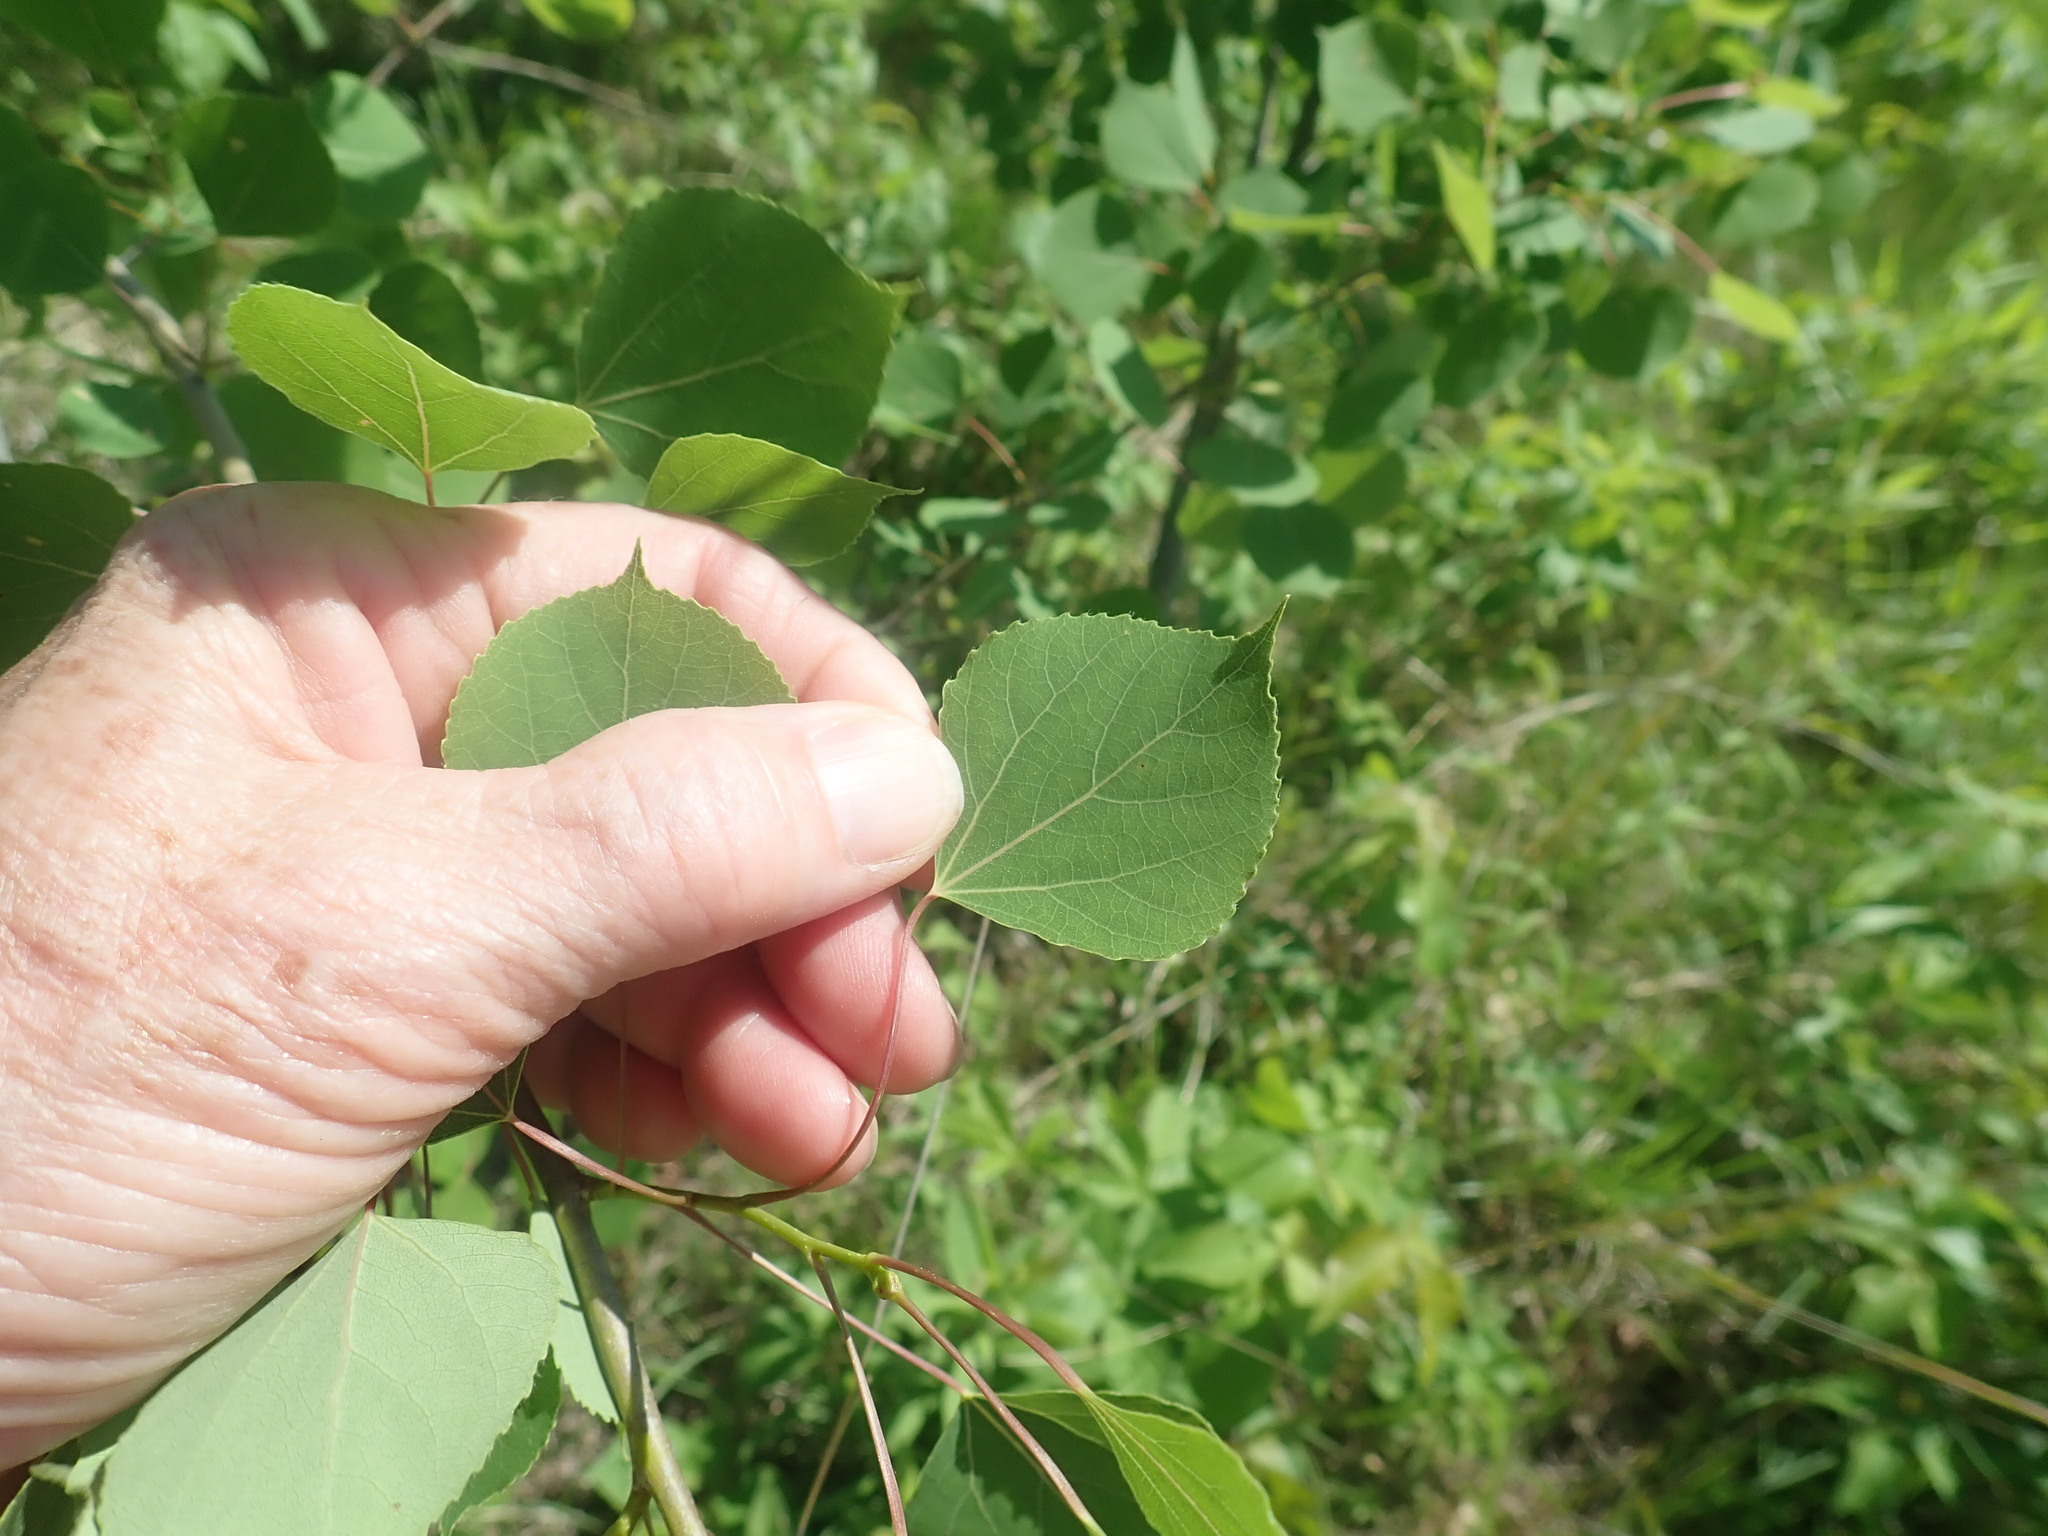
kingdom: Plantae
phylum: Tracheophyta
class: Magnoliopsida
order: Malpighiales
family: Salicaceae
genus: Populus
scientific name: Populus tremuloides
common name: Quaking aspen
